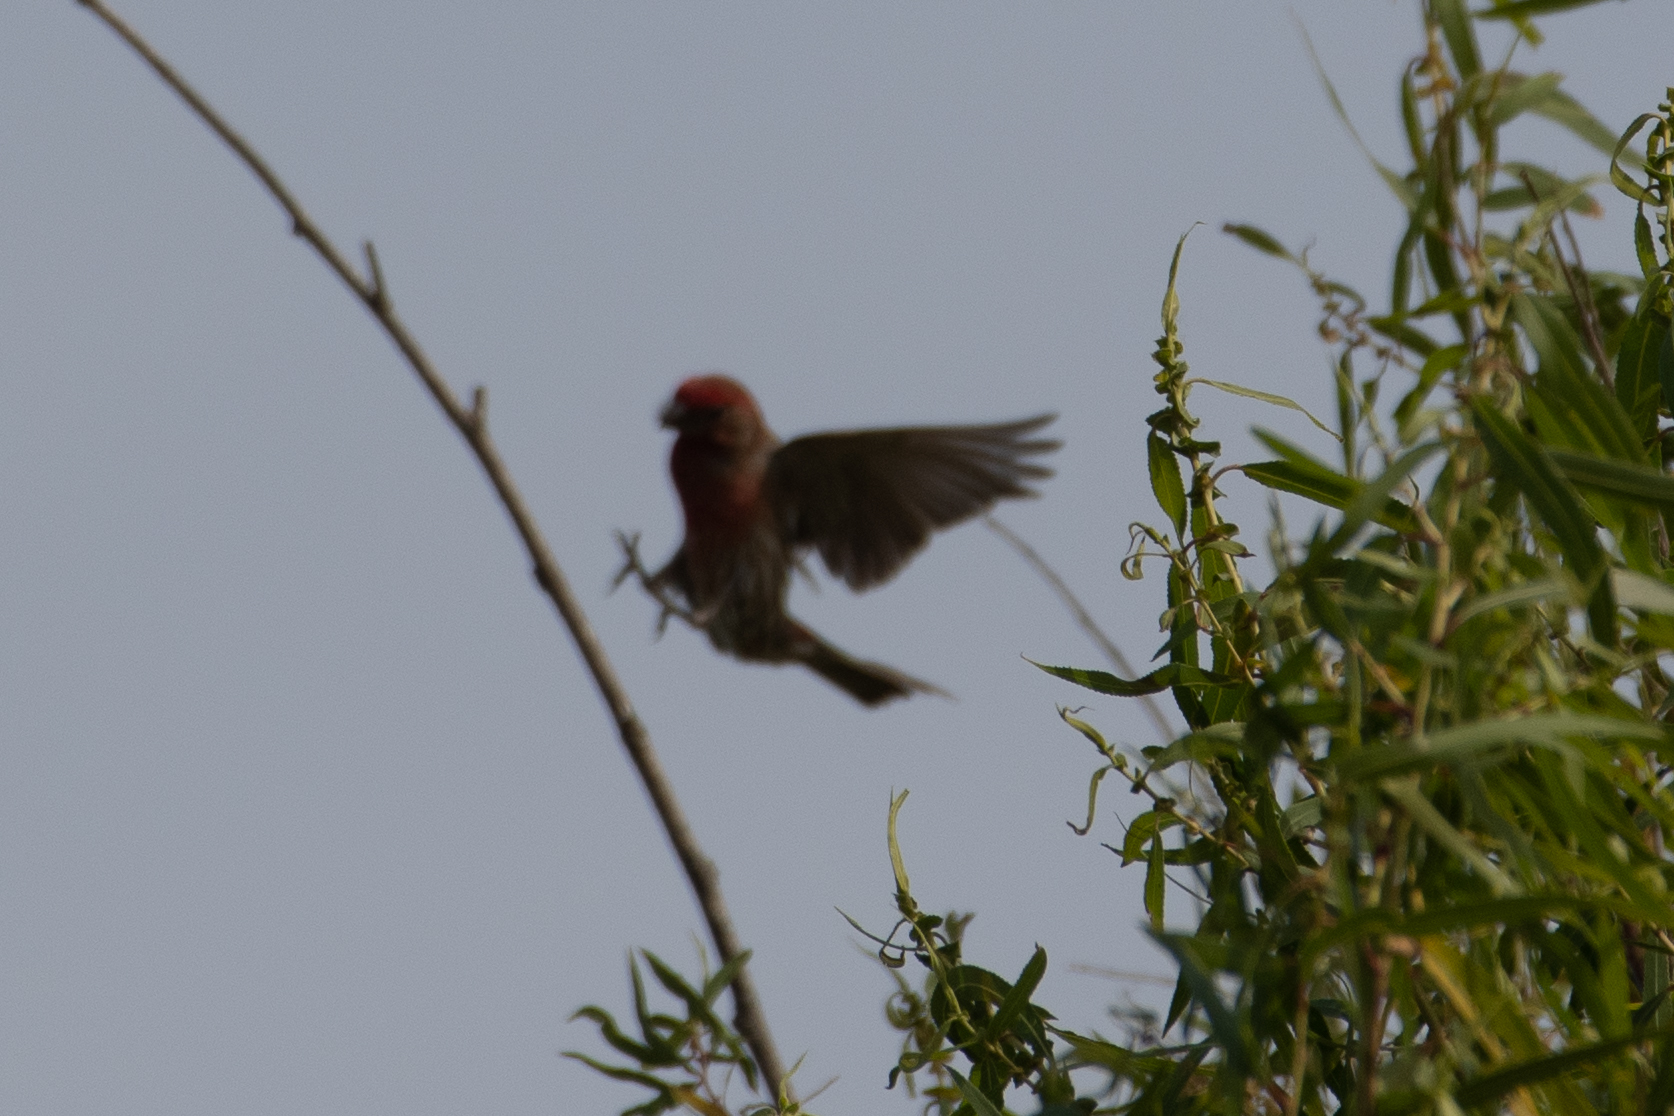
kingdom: Animalia
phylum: Chordata
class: Aves
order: Passeriformes
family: Fringillidae
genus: Haemorhous
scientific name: Haemorhous mexicanus
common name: House finch
